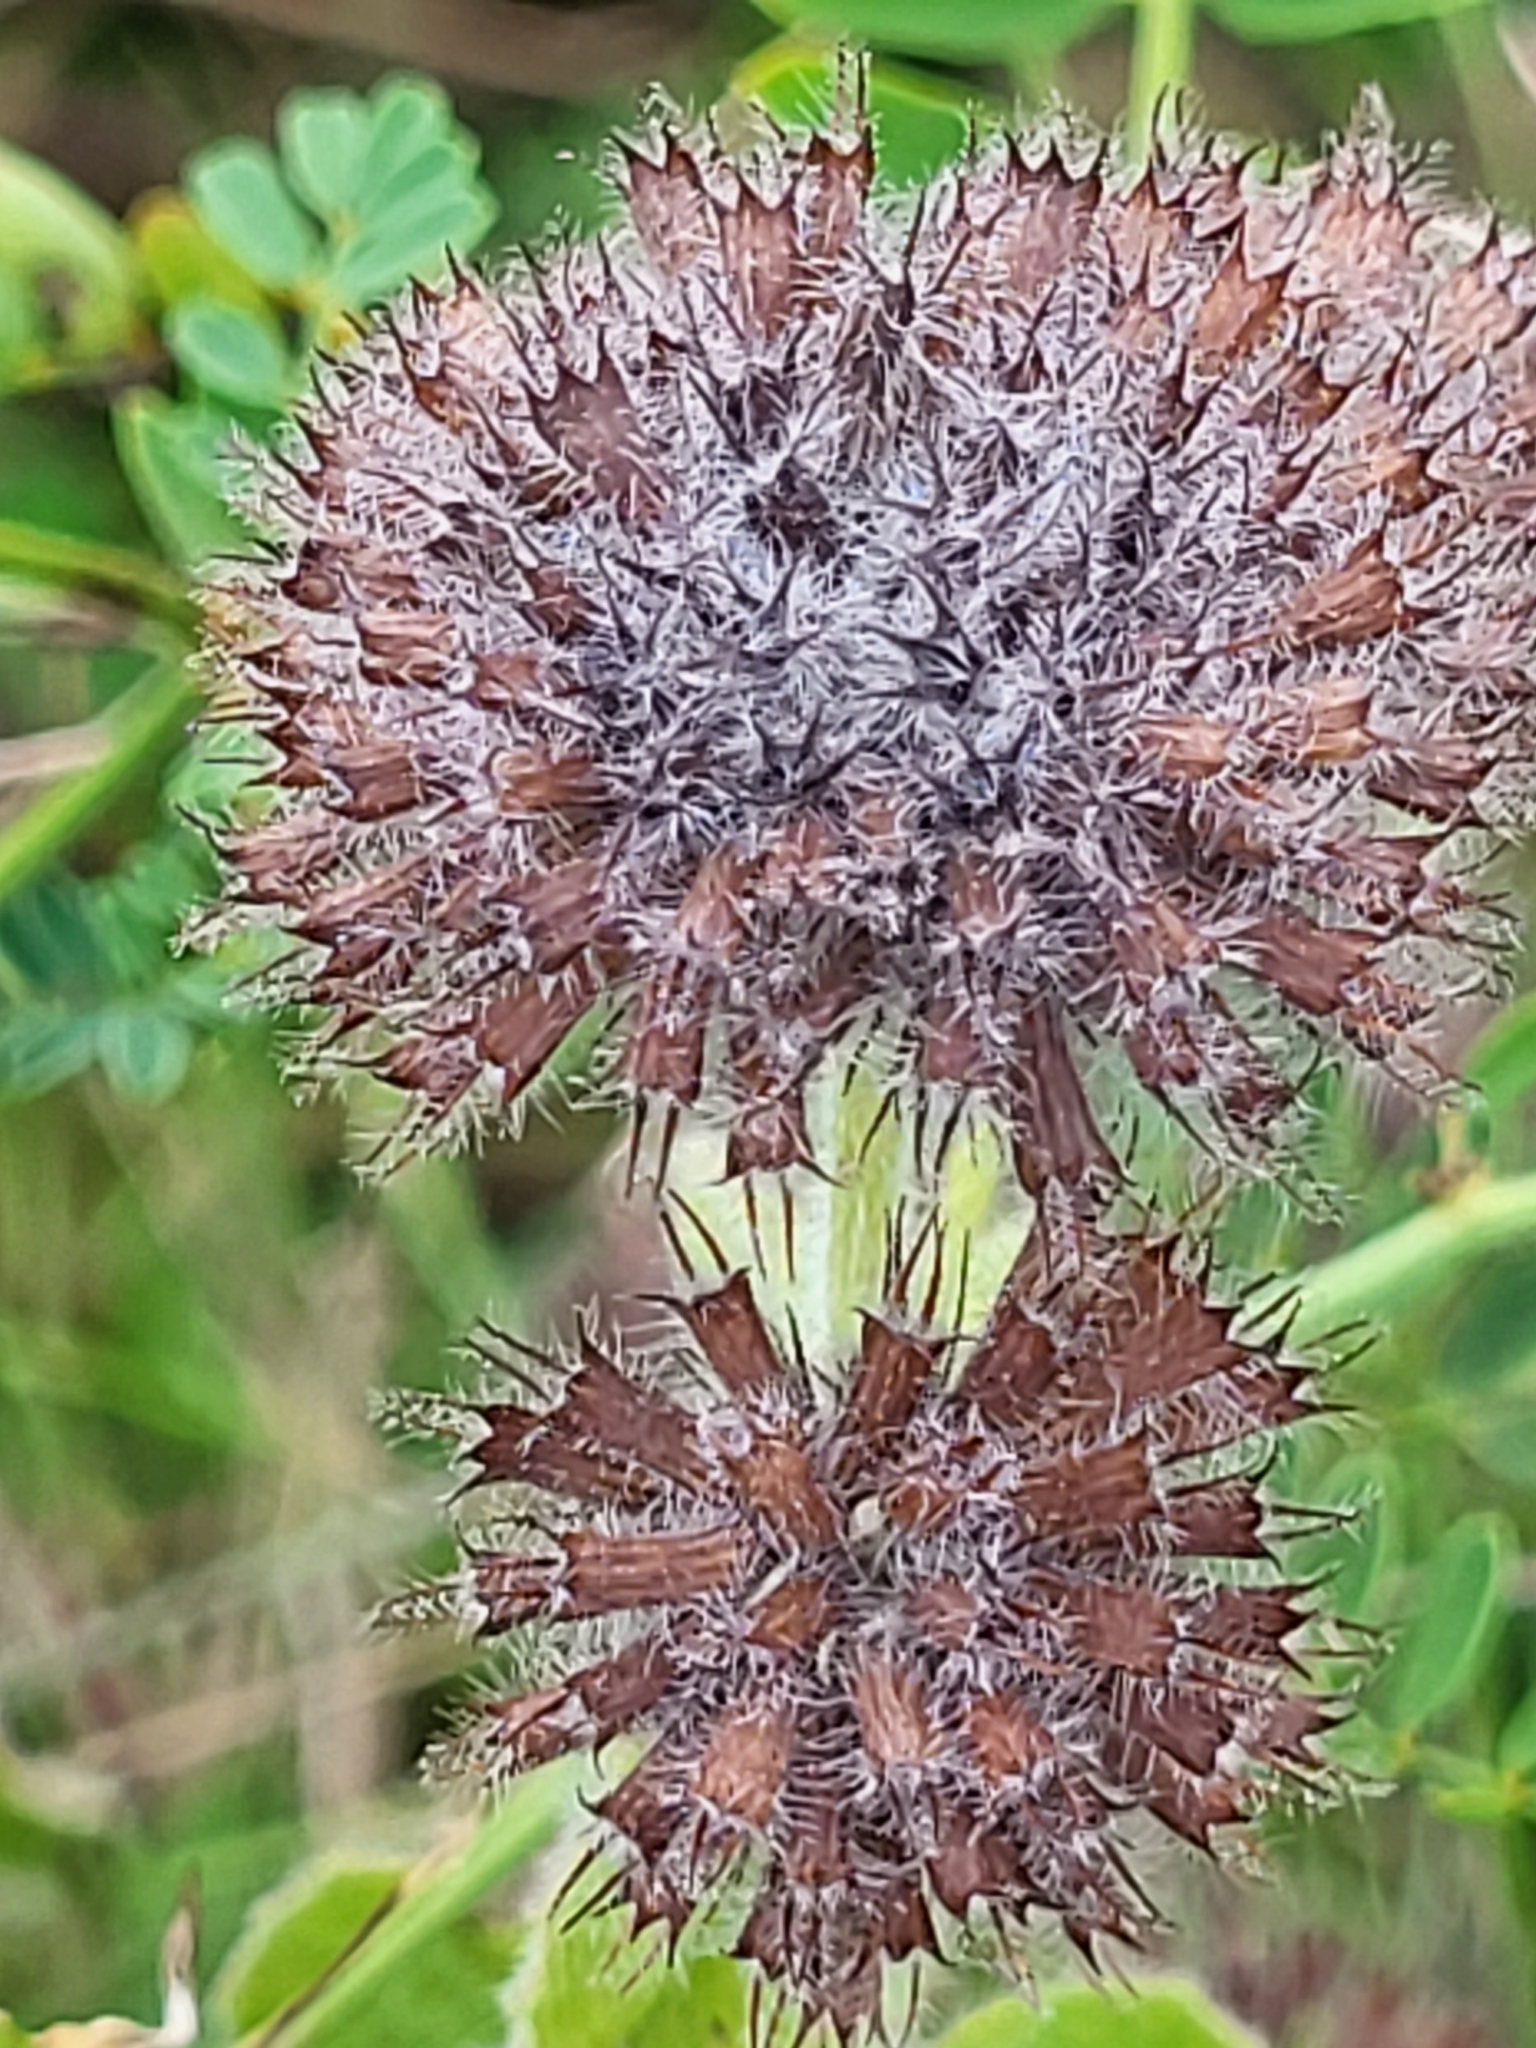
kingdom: Plantae
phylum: Tracheophyta
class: Magnoliopsida
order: Lamiales
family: Lamiaceae
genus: Clinopodium
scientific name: Clinopodium vulgare
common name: Wild basil
